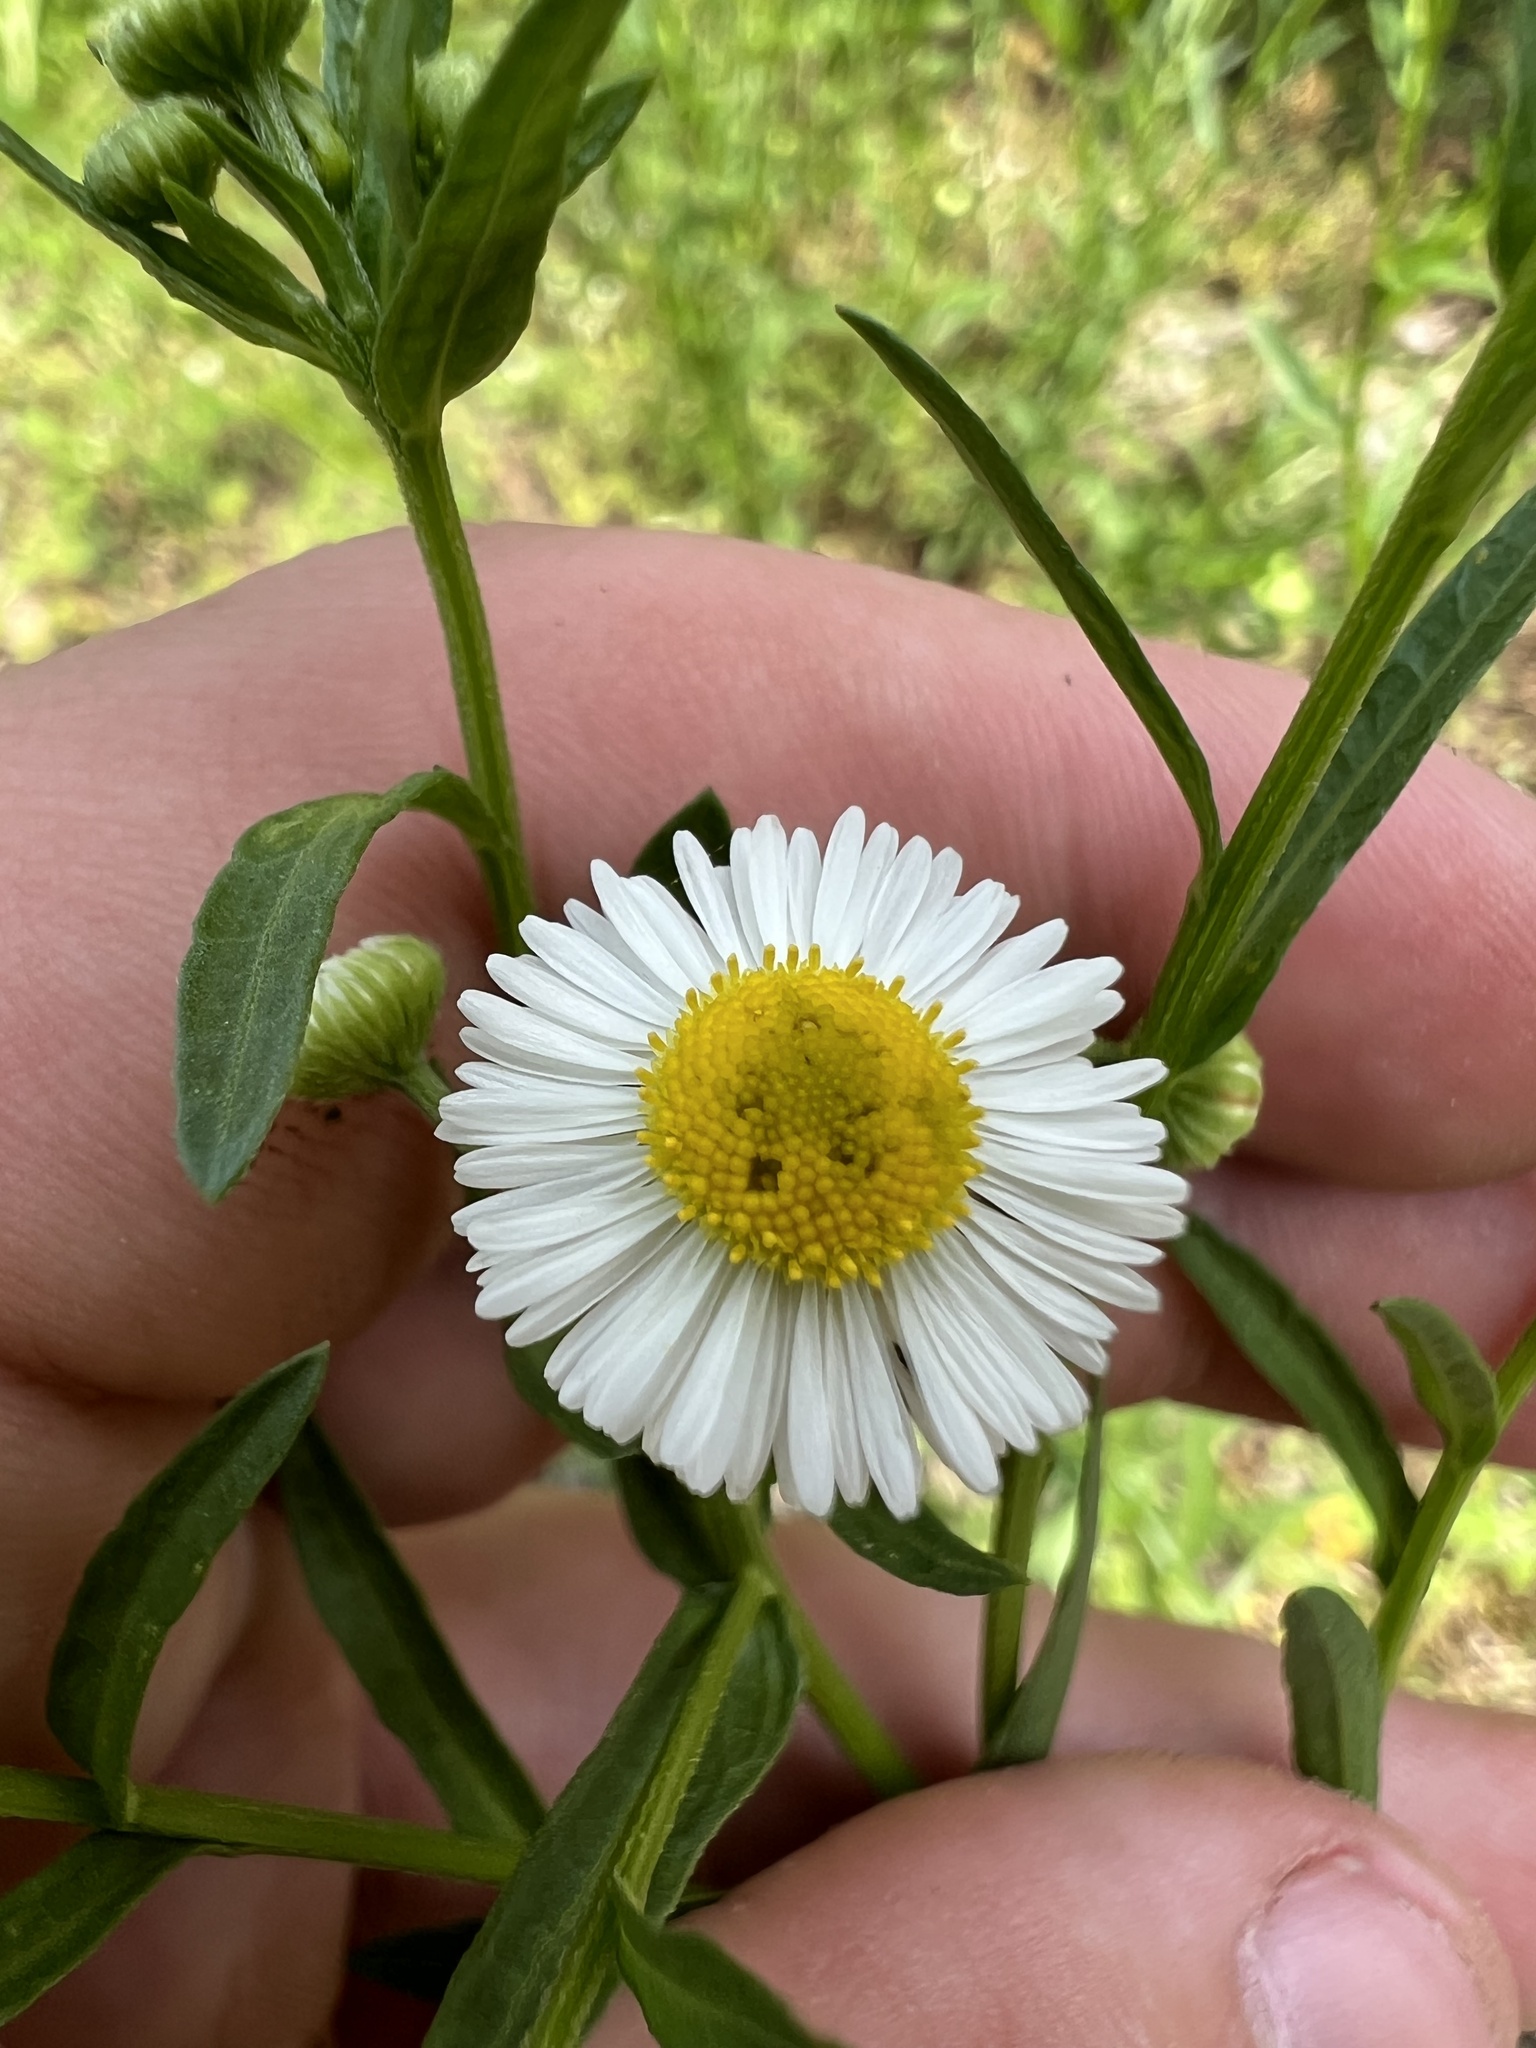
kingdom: Plantae
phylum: Tracheophyta
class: Magnoliopsida
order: Asterales
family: Asteraceae
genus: Erigeron
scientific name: Erigeron strigosus
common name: Common eastern fleabane
